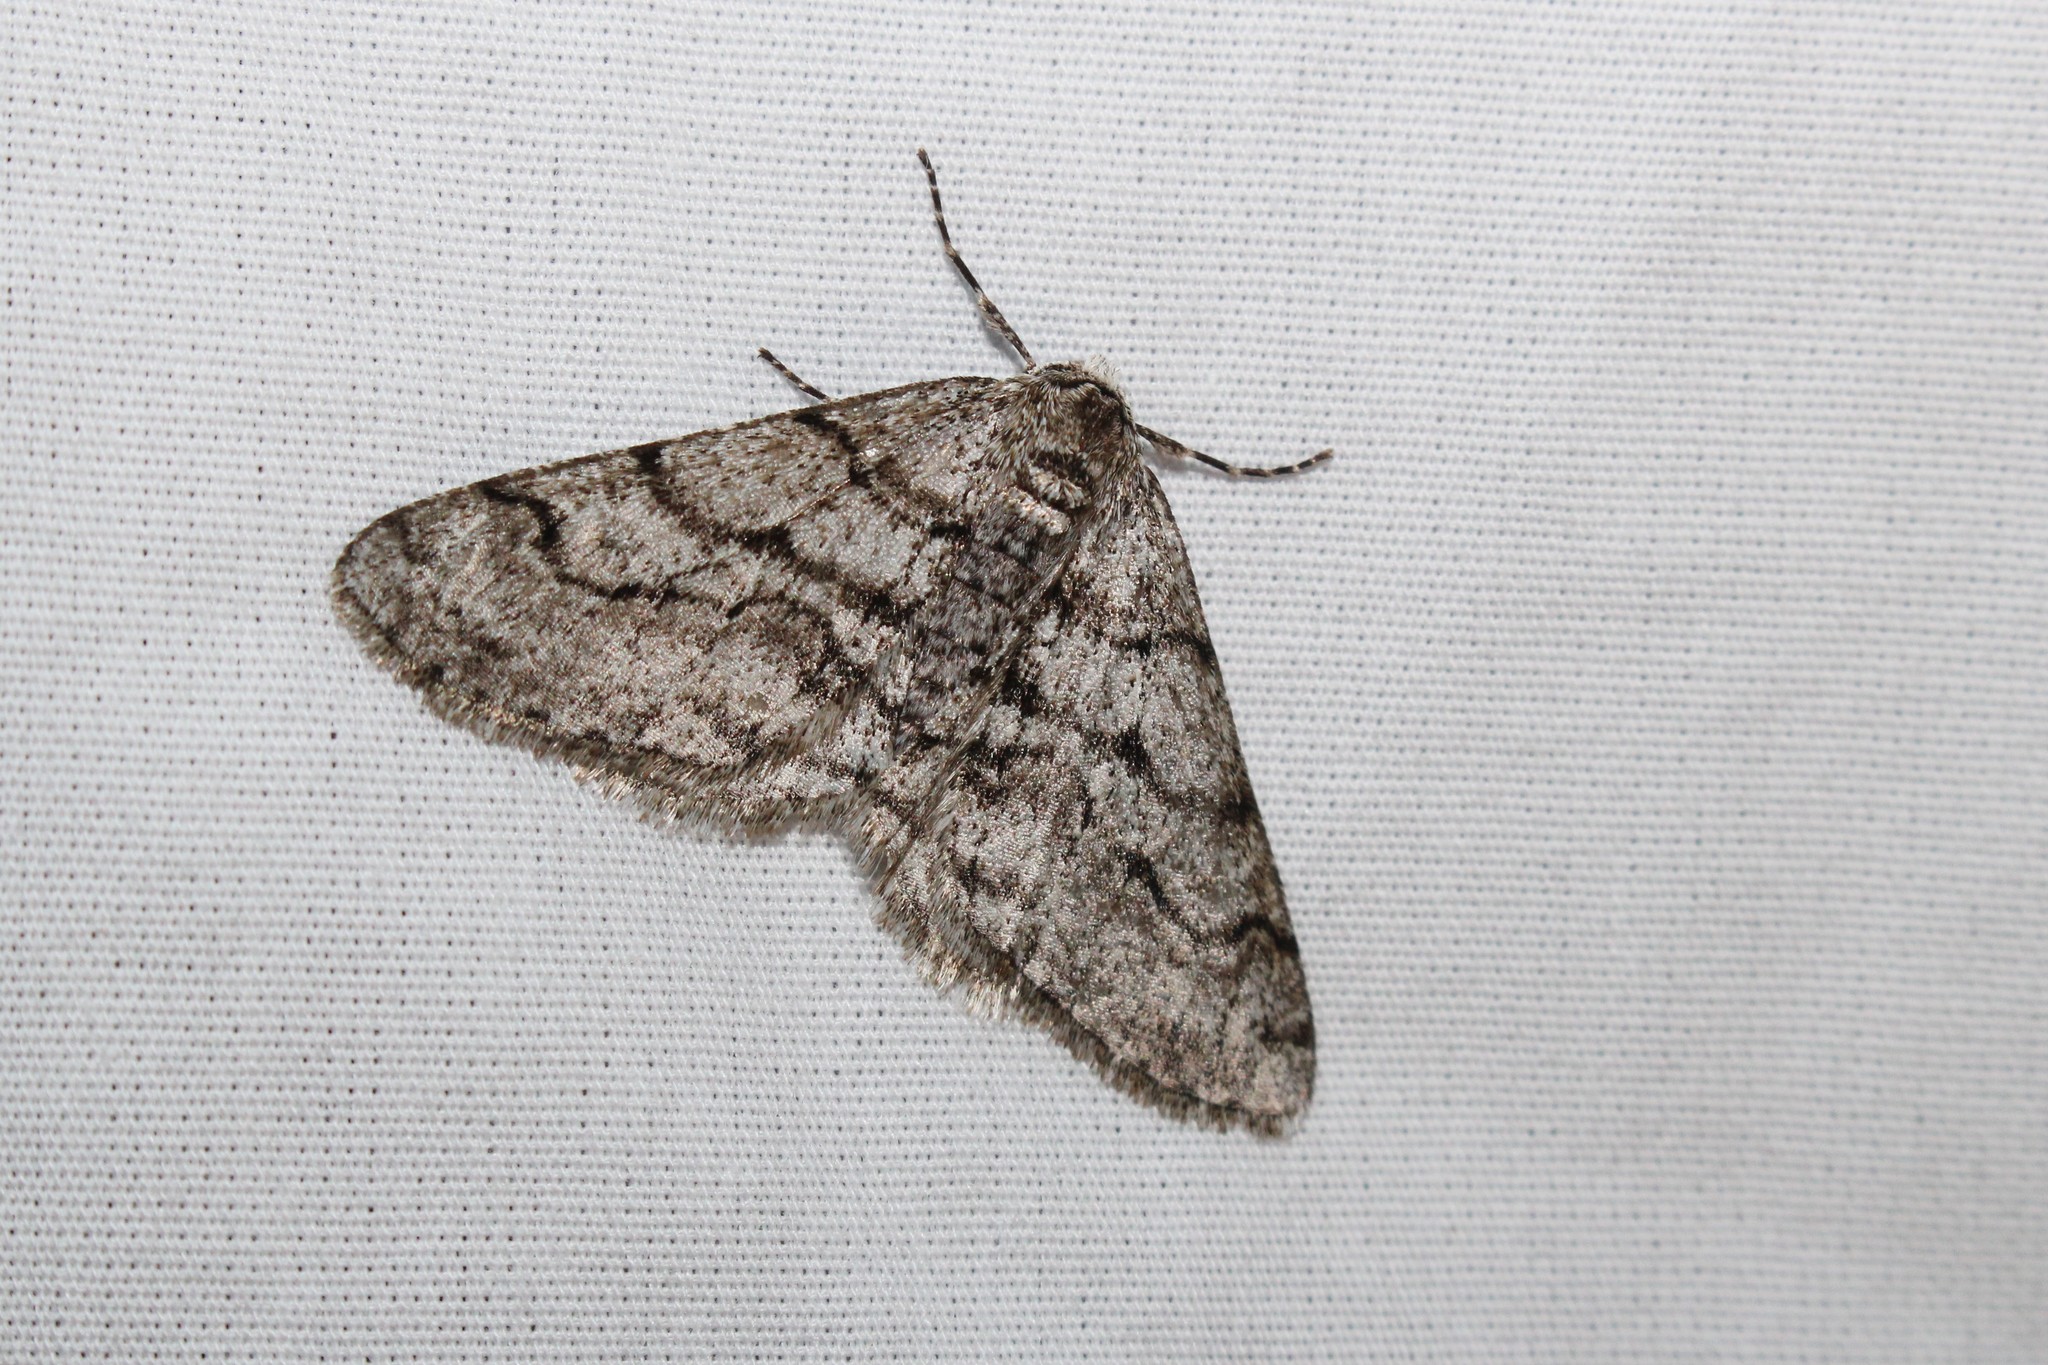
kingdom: Animalia
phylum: Arthropoda
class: Insecta
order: Lepidoptera
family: Geometridae
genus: Phigalia
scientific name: Phigalia titea
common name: Spiny looper
